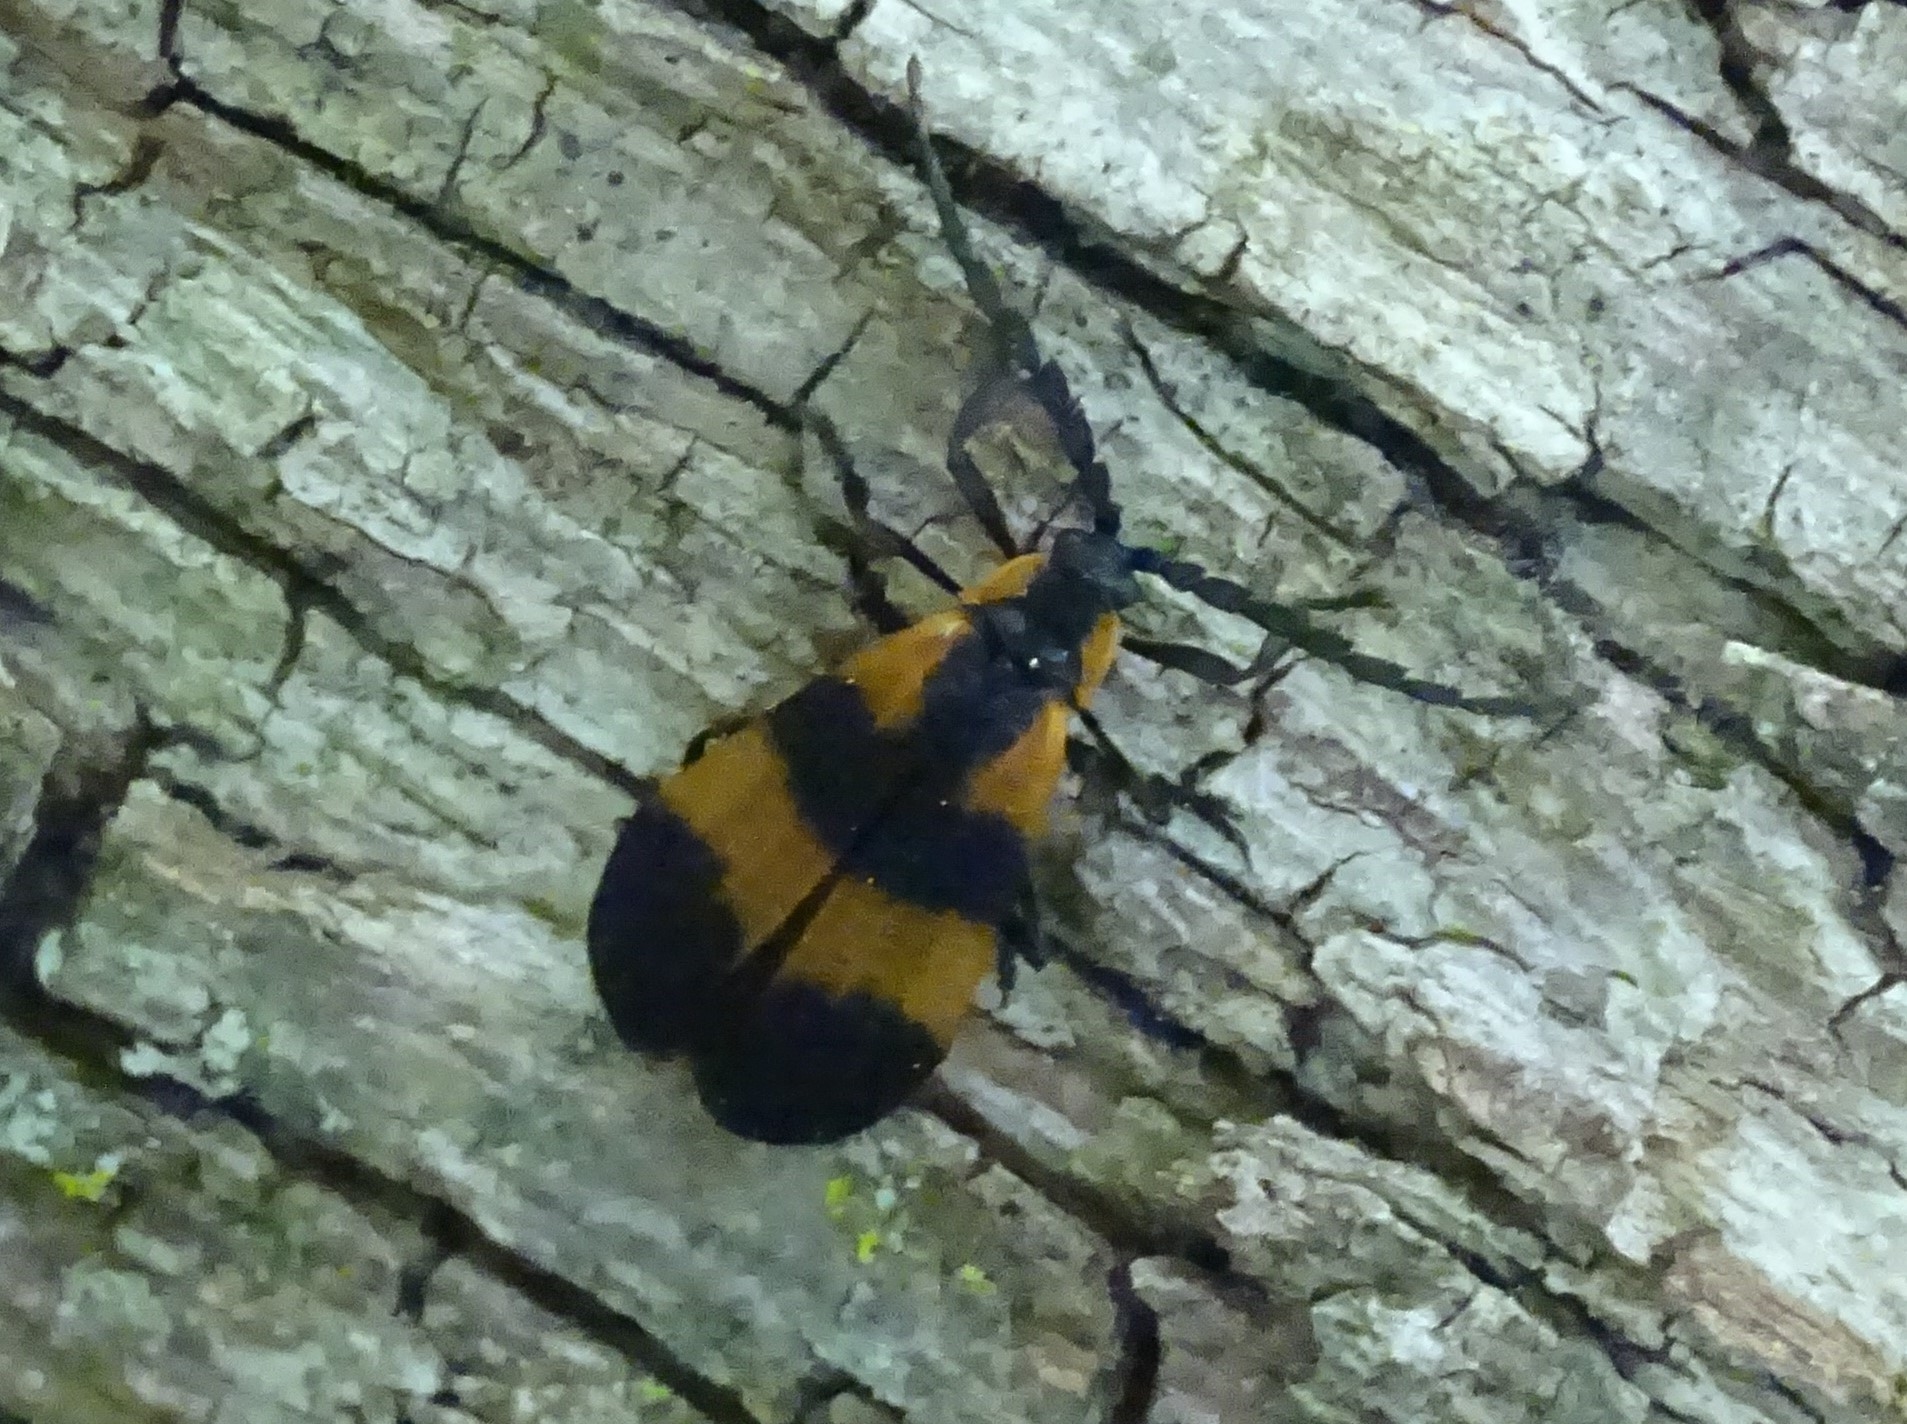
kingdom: Animalia
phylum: Arthropoda
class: Insecta
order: Coleoptera
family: Lycidae
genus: Calopteron
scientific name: Calopteron discrepans
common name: Banded net-winged beetle
